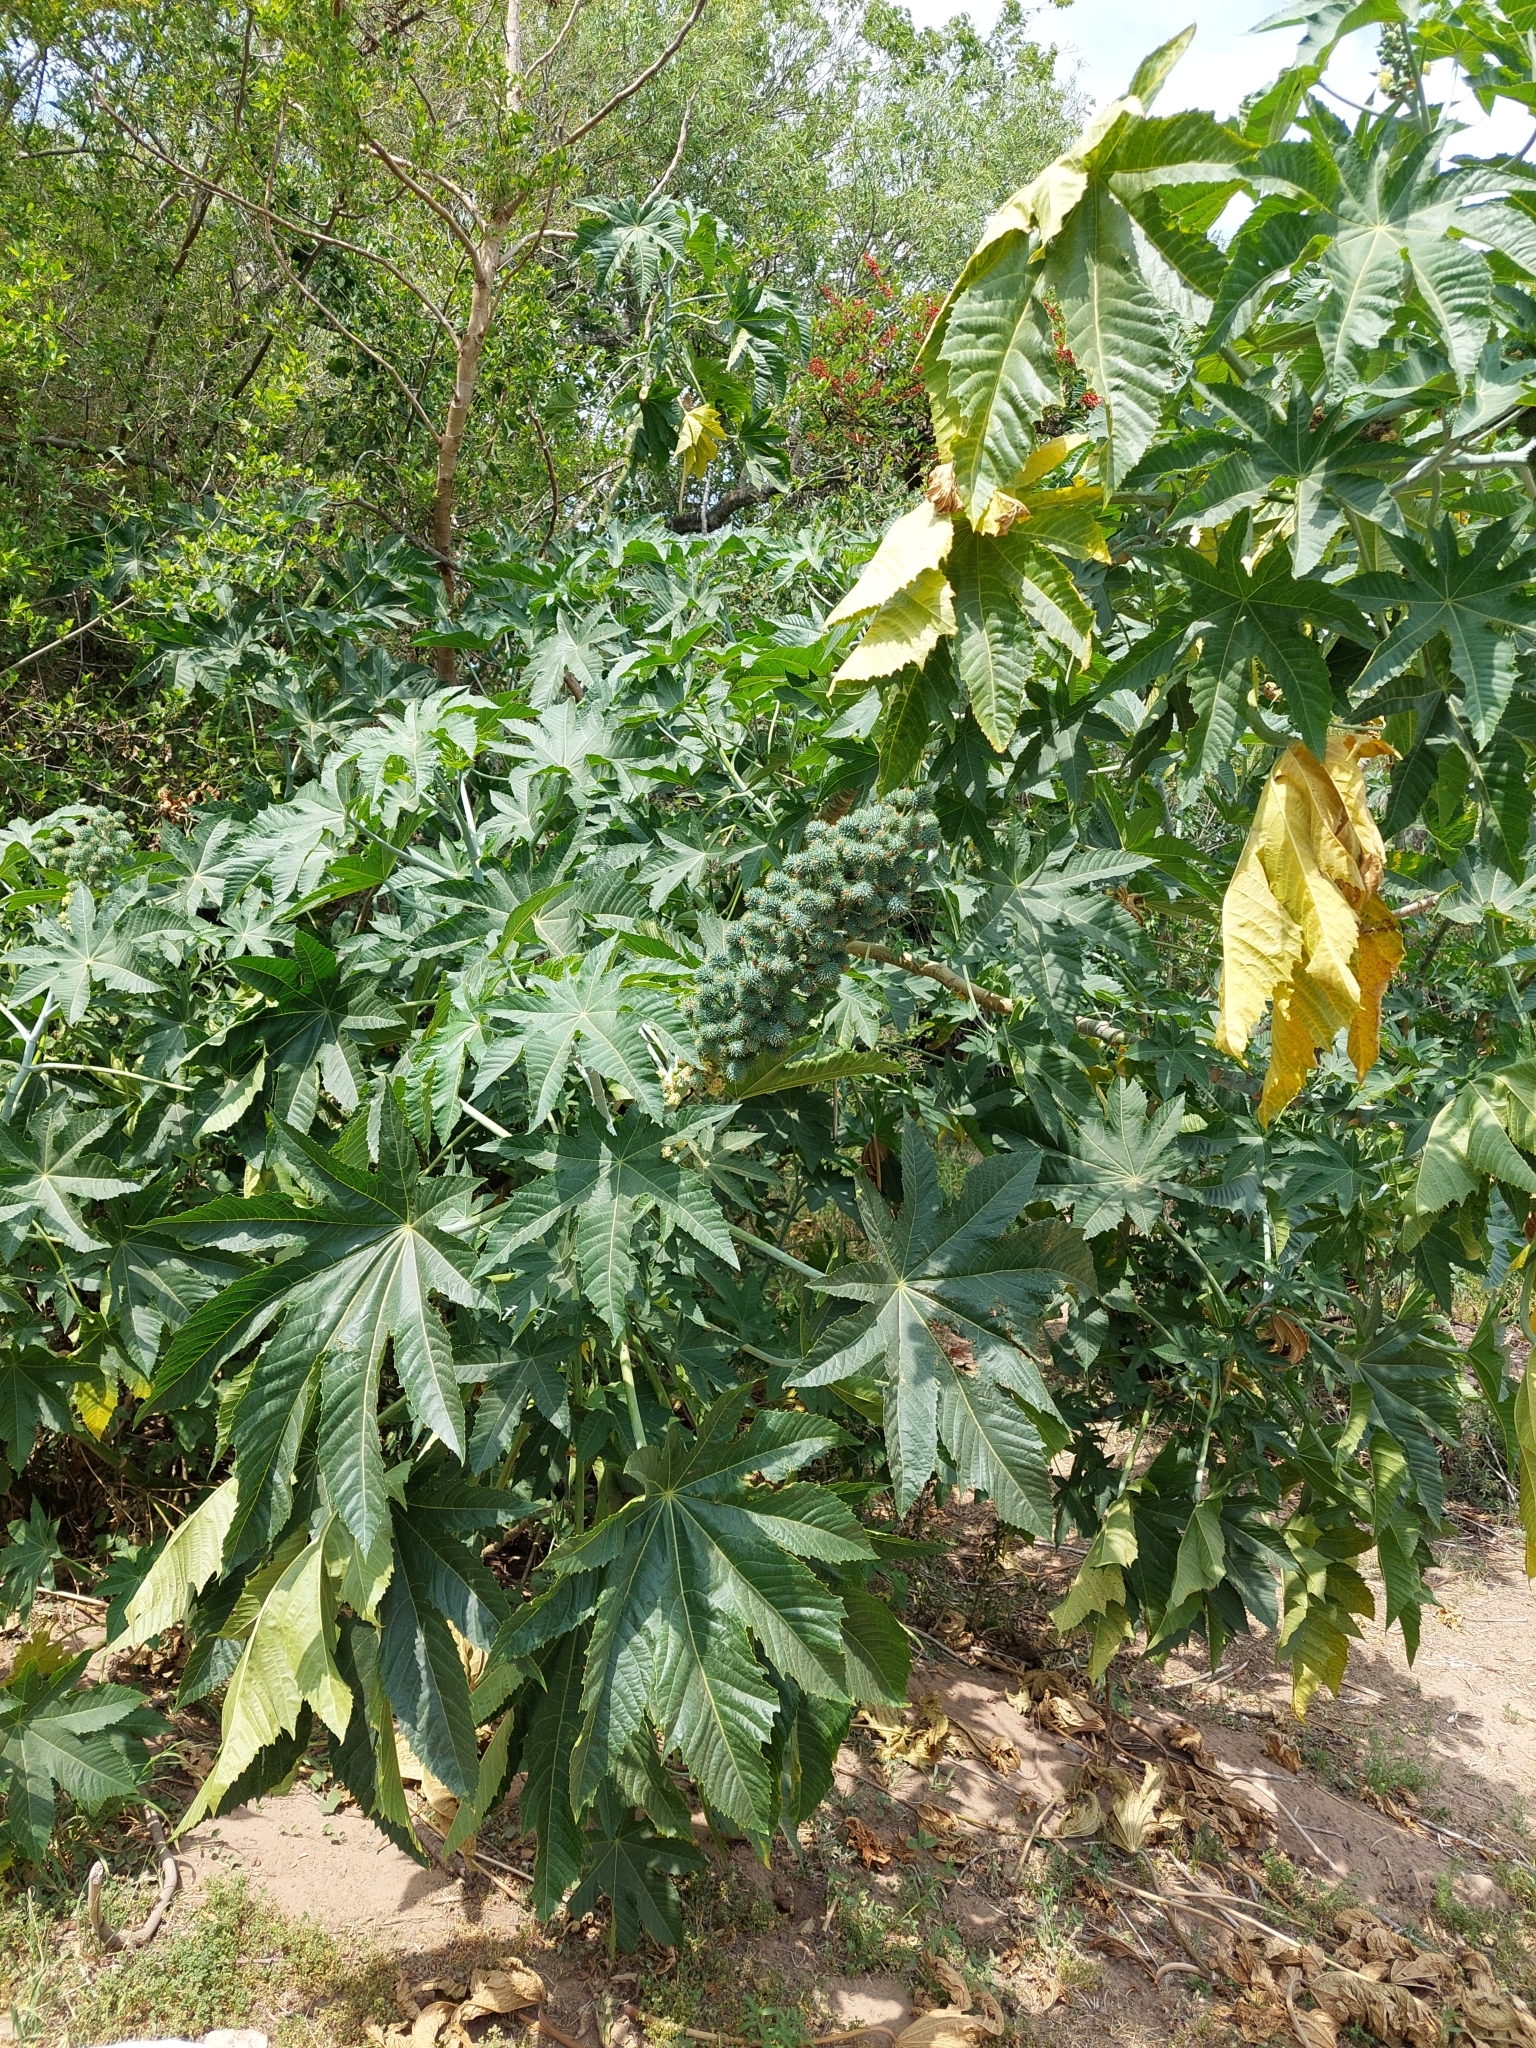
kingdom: Plantae
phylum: Tracheophyta
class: Magnoliopsida
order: Malpighiales
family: Euphorbiaceae
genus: Ricinus
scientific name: Ricinus communis
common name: Castor-oil-plant
